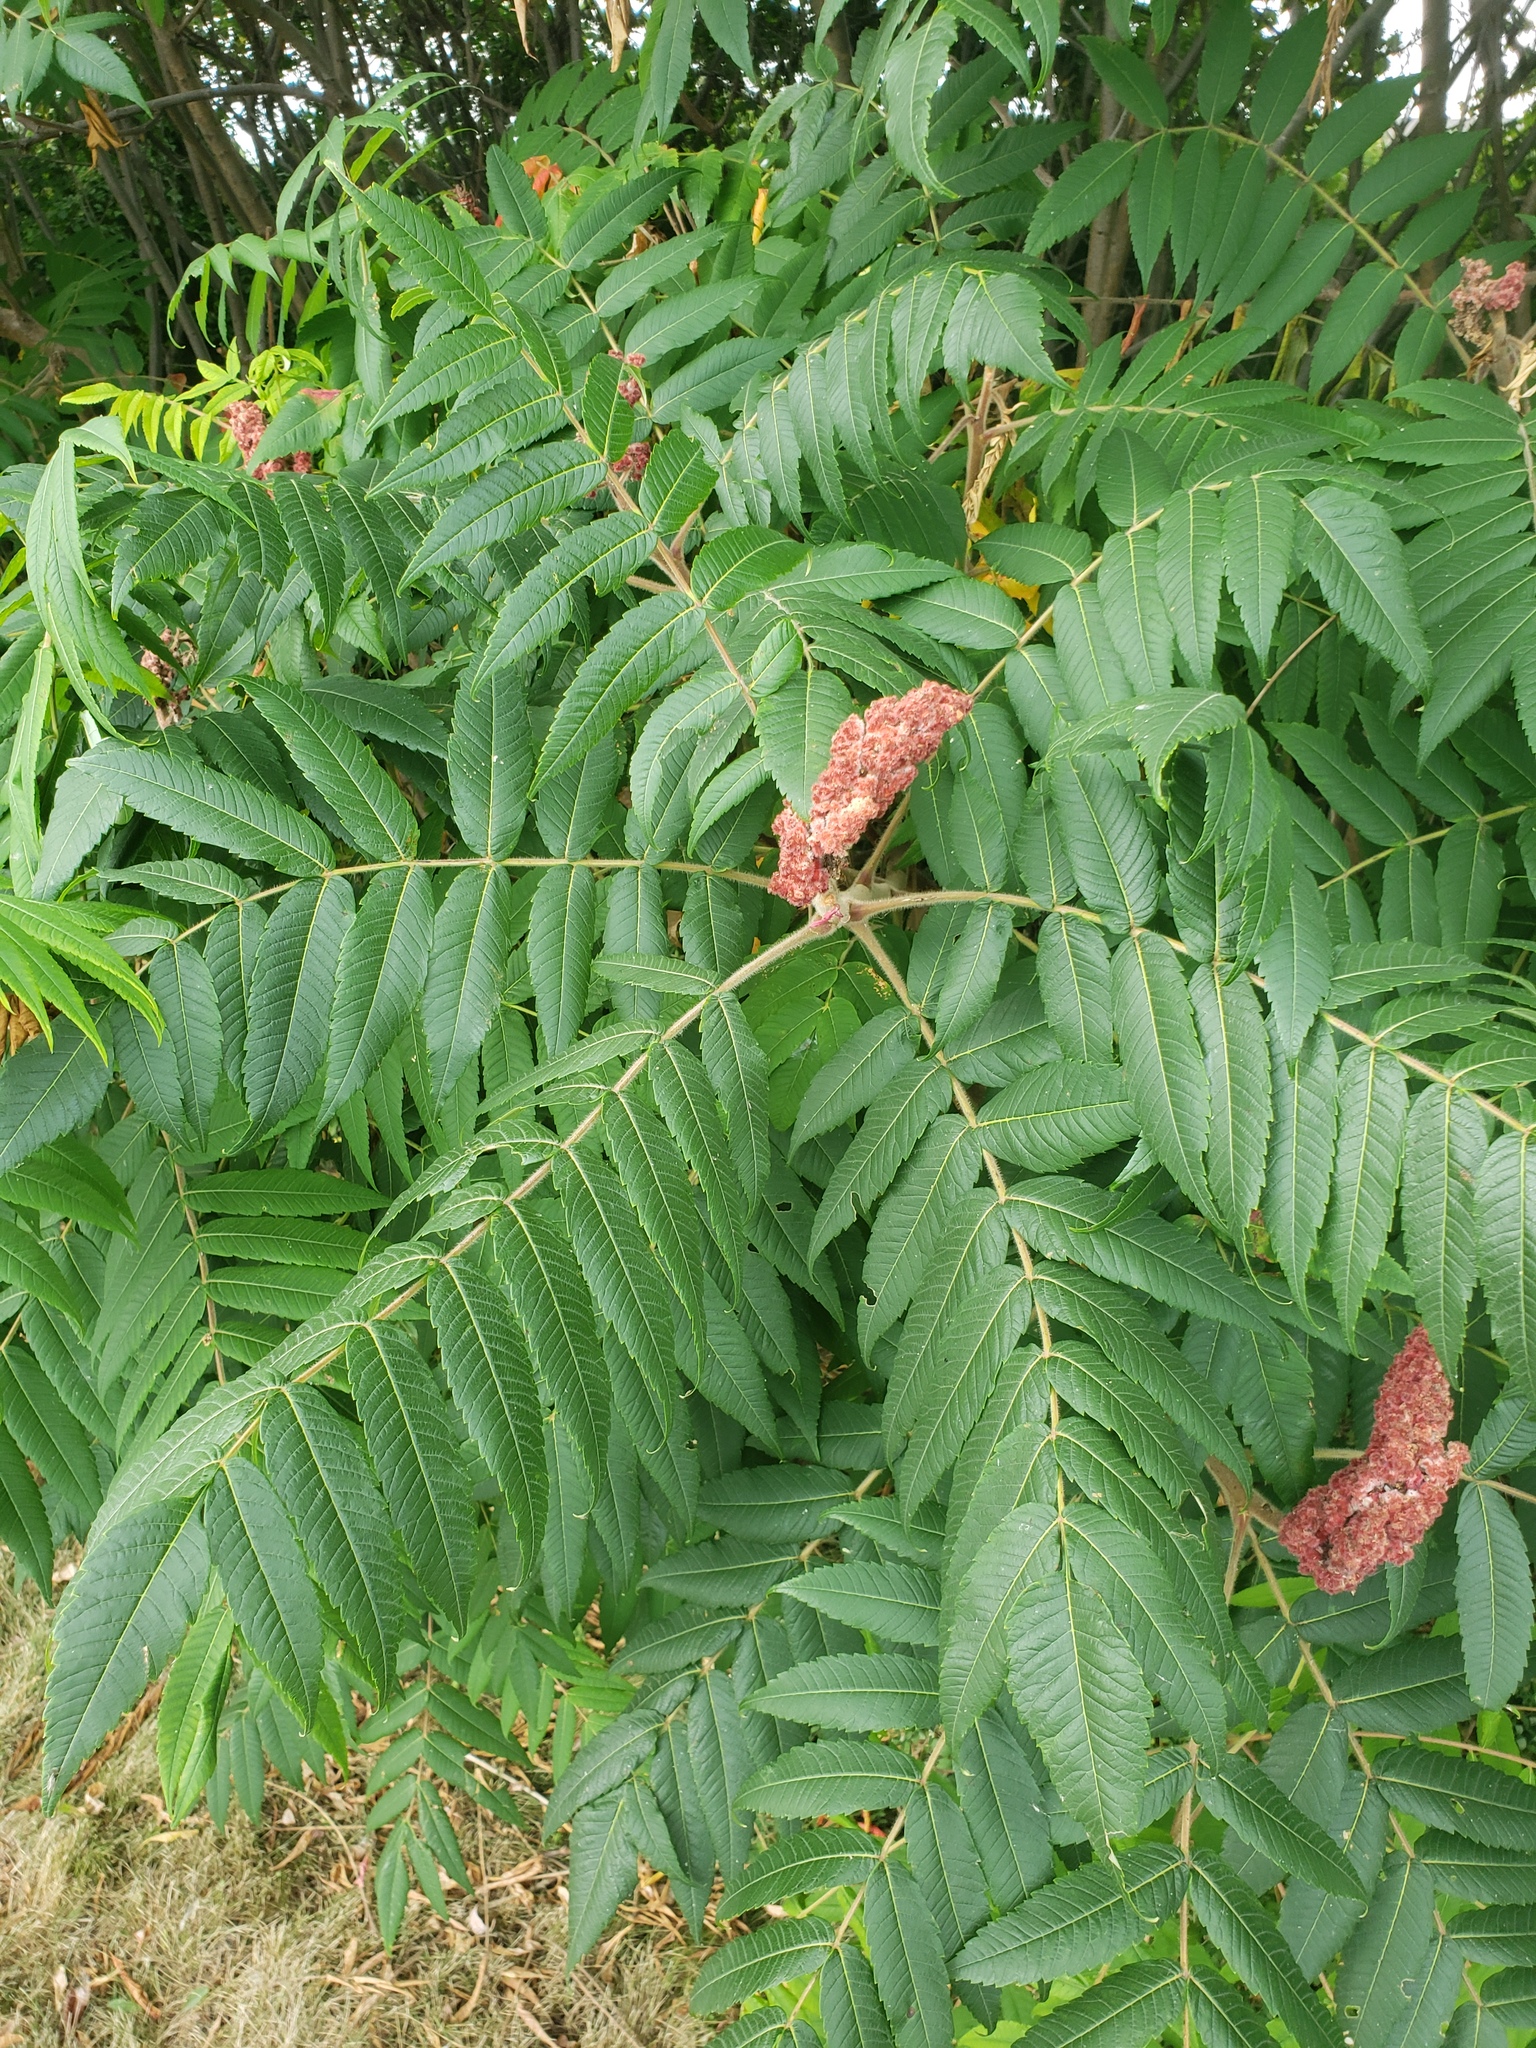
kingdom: Plantae
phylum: Tracheophyta
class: Magnoliopsida
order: Sapindales
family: Anacardiaceae
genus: Rhus
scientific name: Rhus typhina
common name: Staghorn sumac
